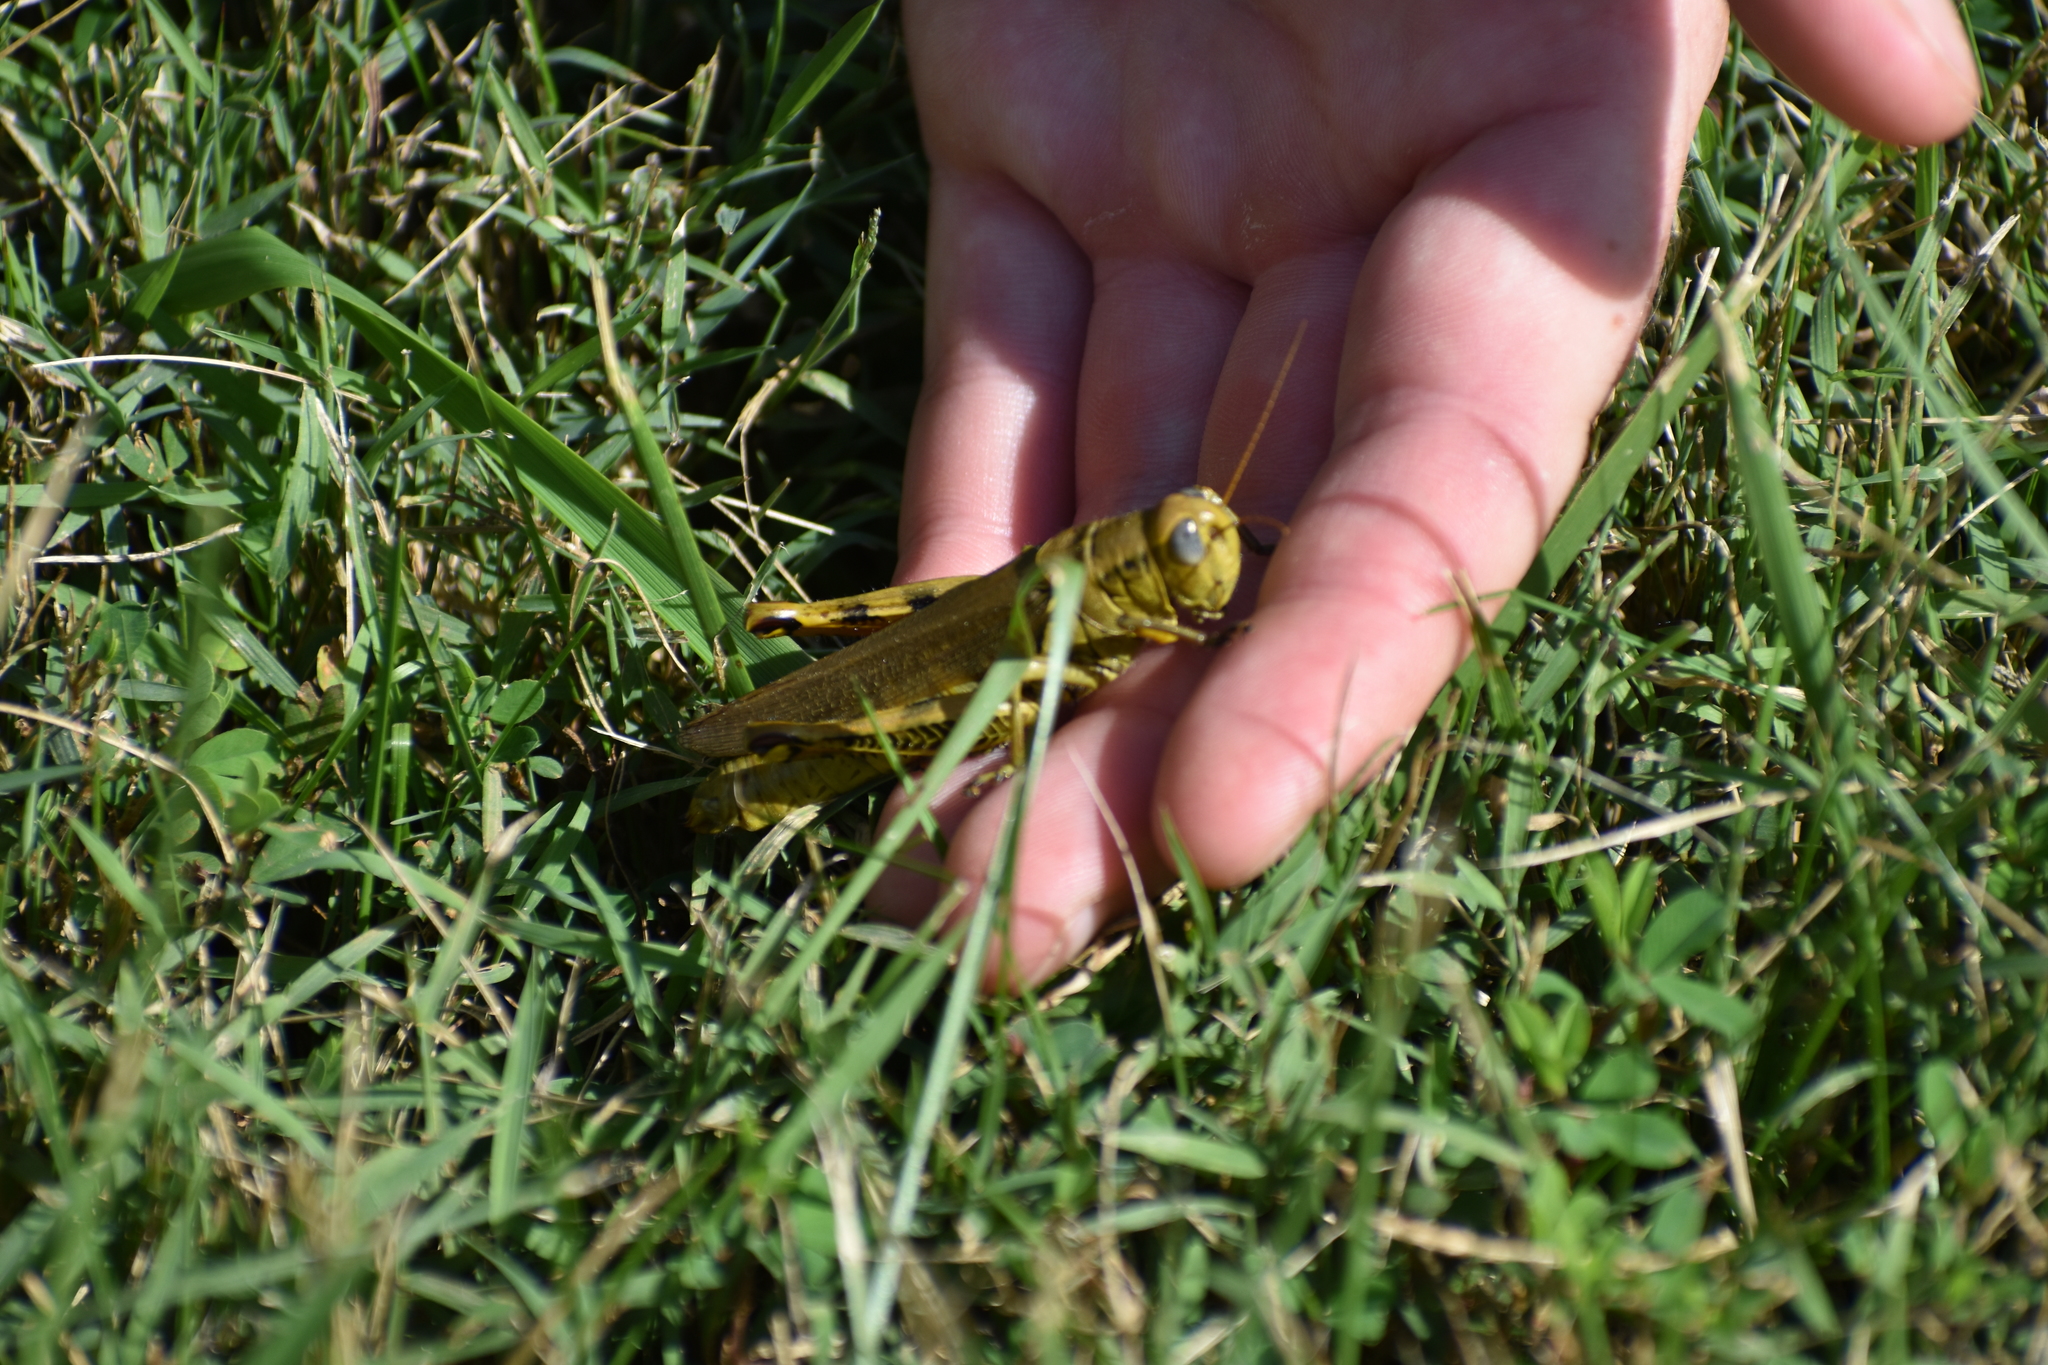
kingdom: Animalia
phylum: Arthropoda
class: Insecta
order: Orthoptera
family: Acrididae
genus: Melanoplus
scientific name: Melanoplus differentialis
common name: Differential grasshopper
